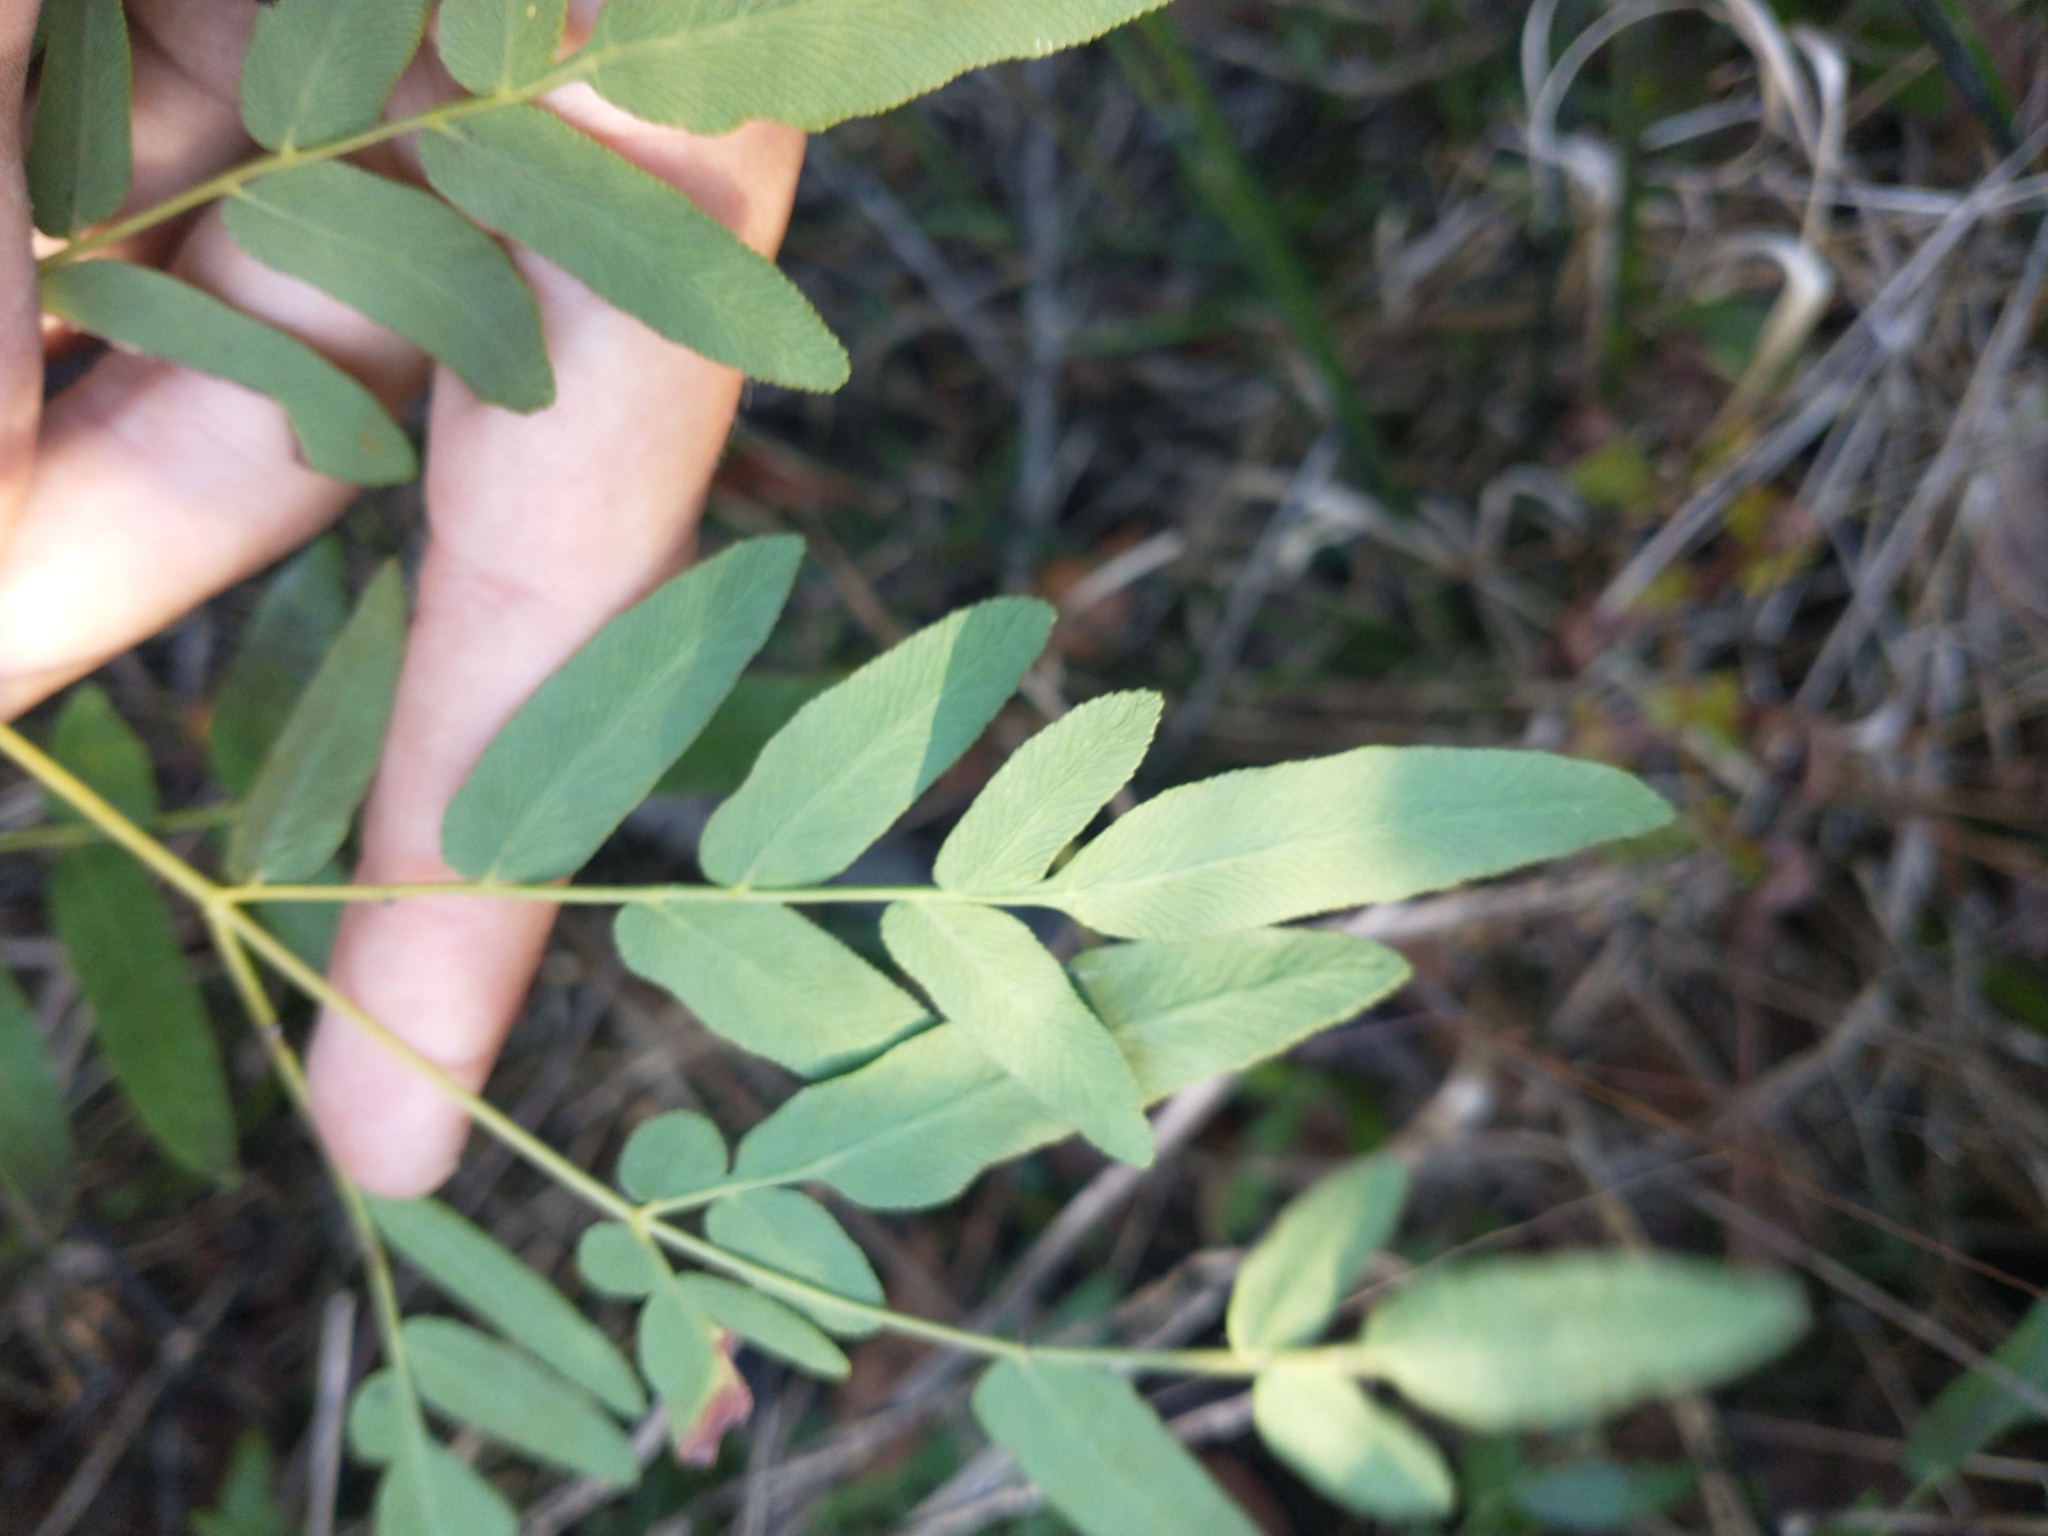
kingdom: Plantae
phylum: Tracheophyta
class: Polypodiopsida
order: Osmundales
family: Osmundaceae
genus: Osmunda
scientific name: Osmunda spectabilis
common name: American royal fern
